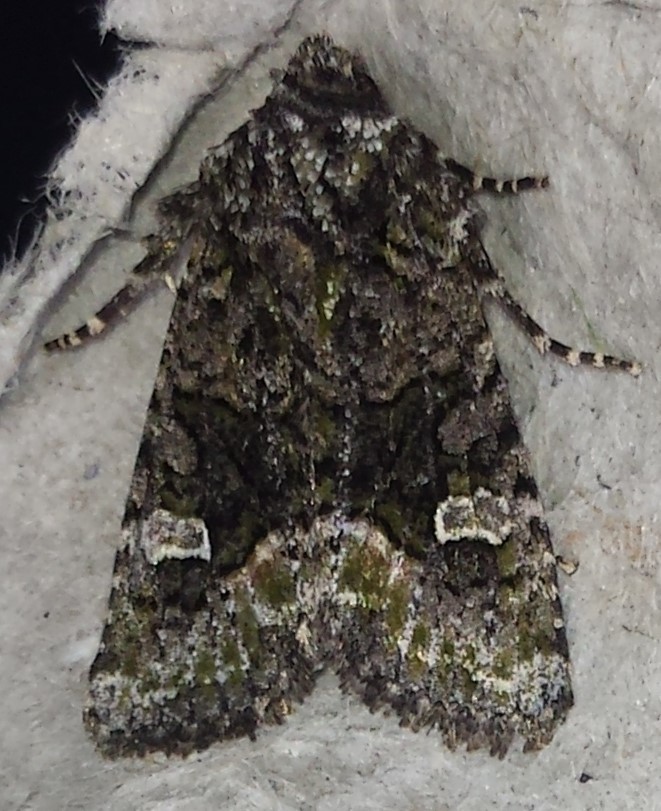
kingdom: Animalia
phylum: Arthropoda
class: Insecta
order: Lepidoptera
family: Noctuidae
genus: Lacinipolia
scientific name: Lacinipolia olivacea
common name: Olive arches moth
